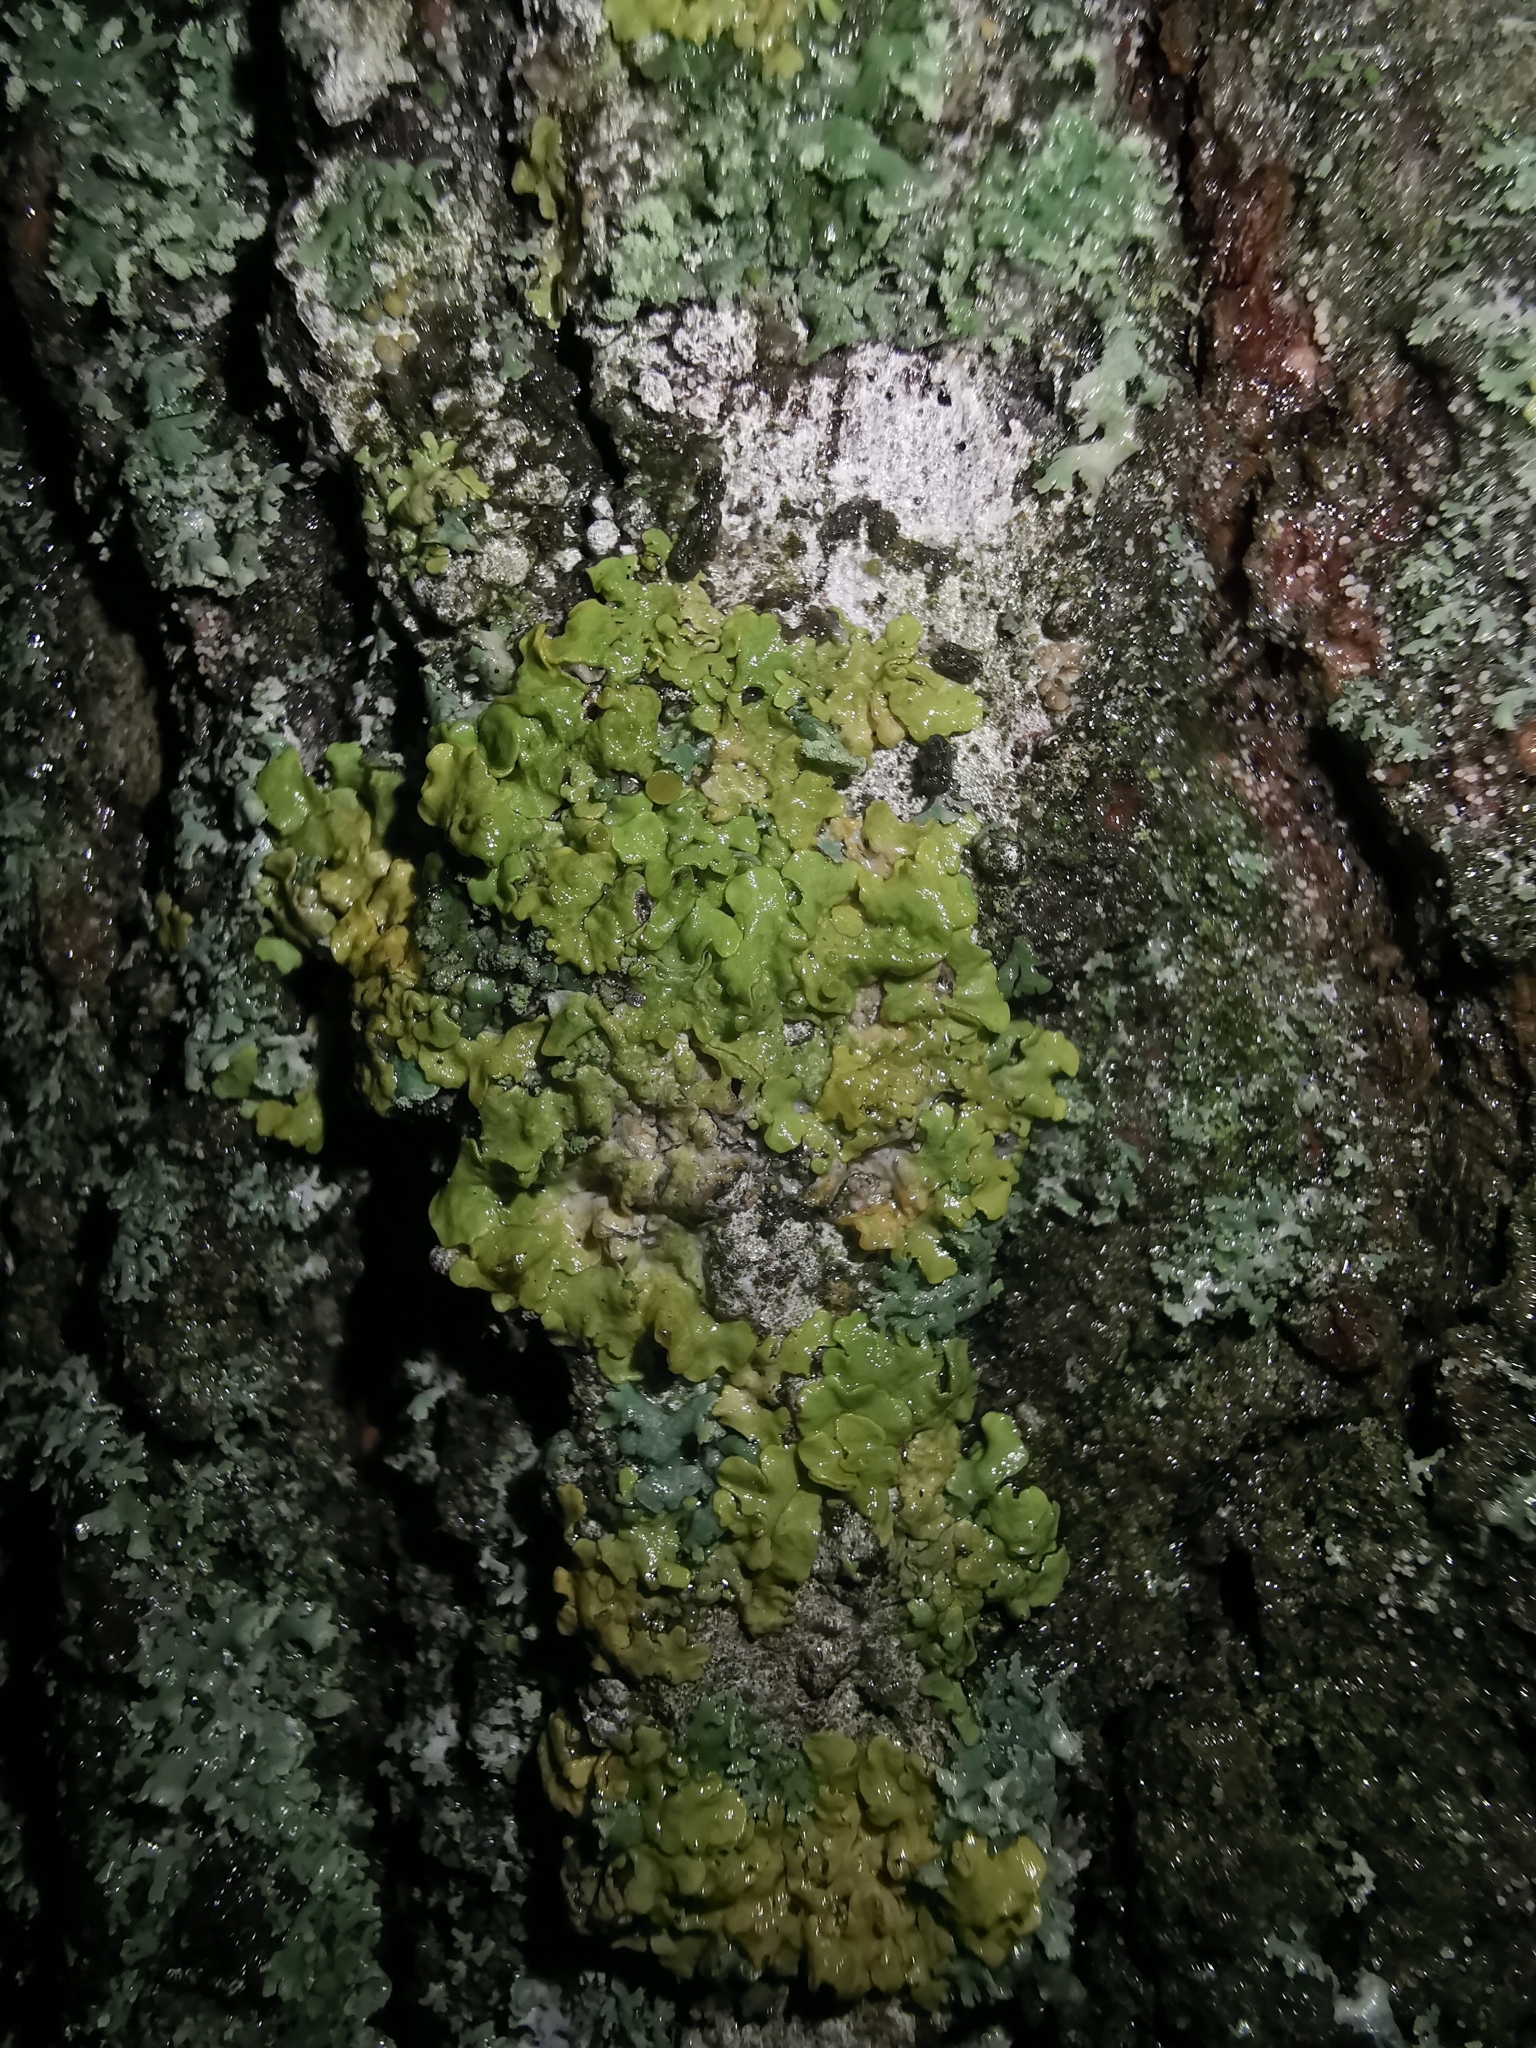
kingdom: Fungi
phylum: Ascomycota
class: Lecanoromycetes
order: Teloschistales
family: Teloschistaceae
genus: Xanthoria
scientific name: Xanthoria parietina
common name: Common orange lichen
